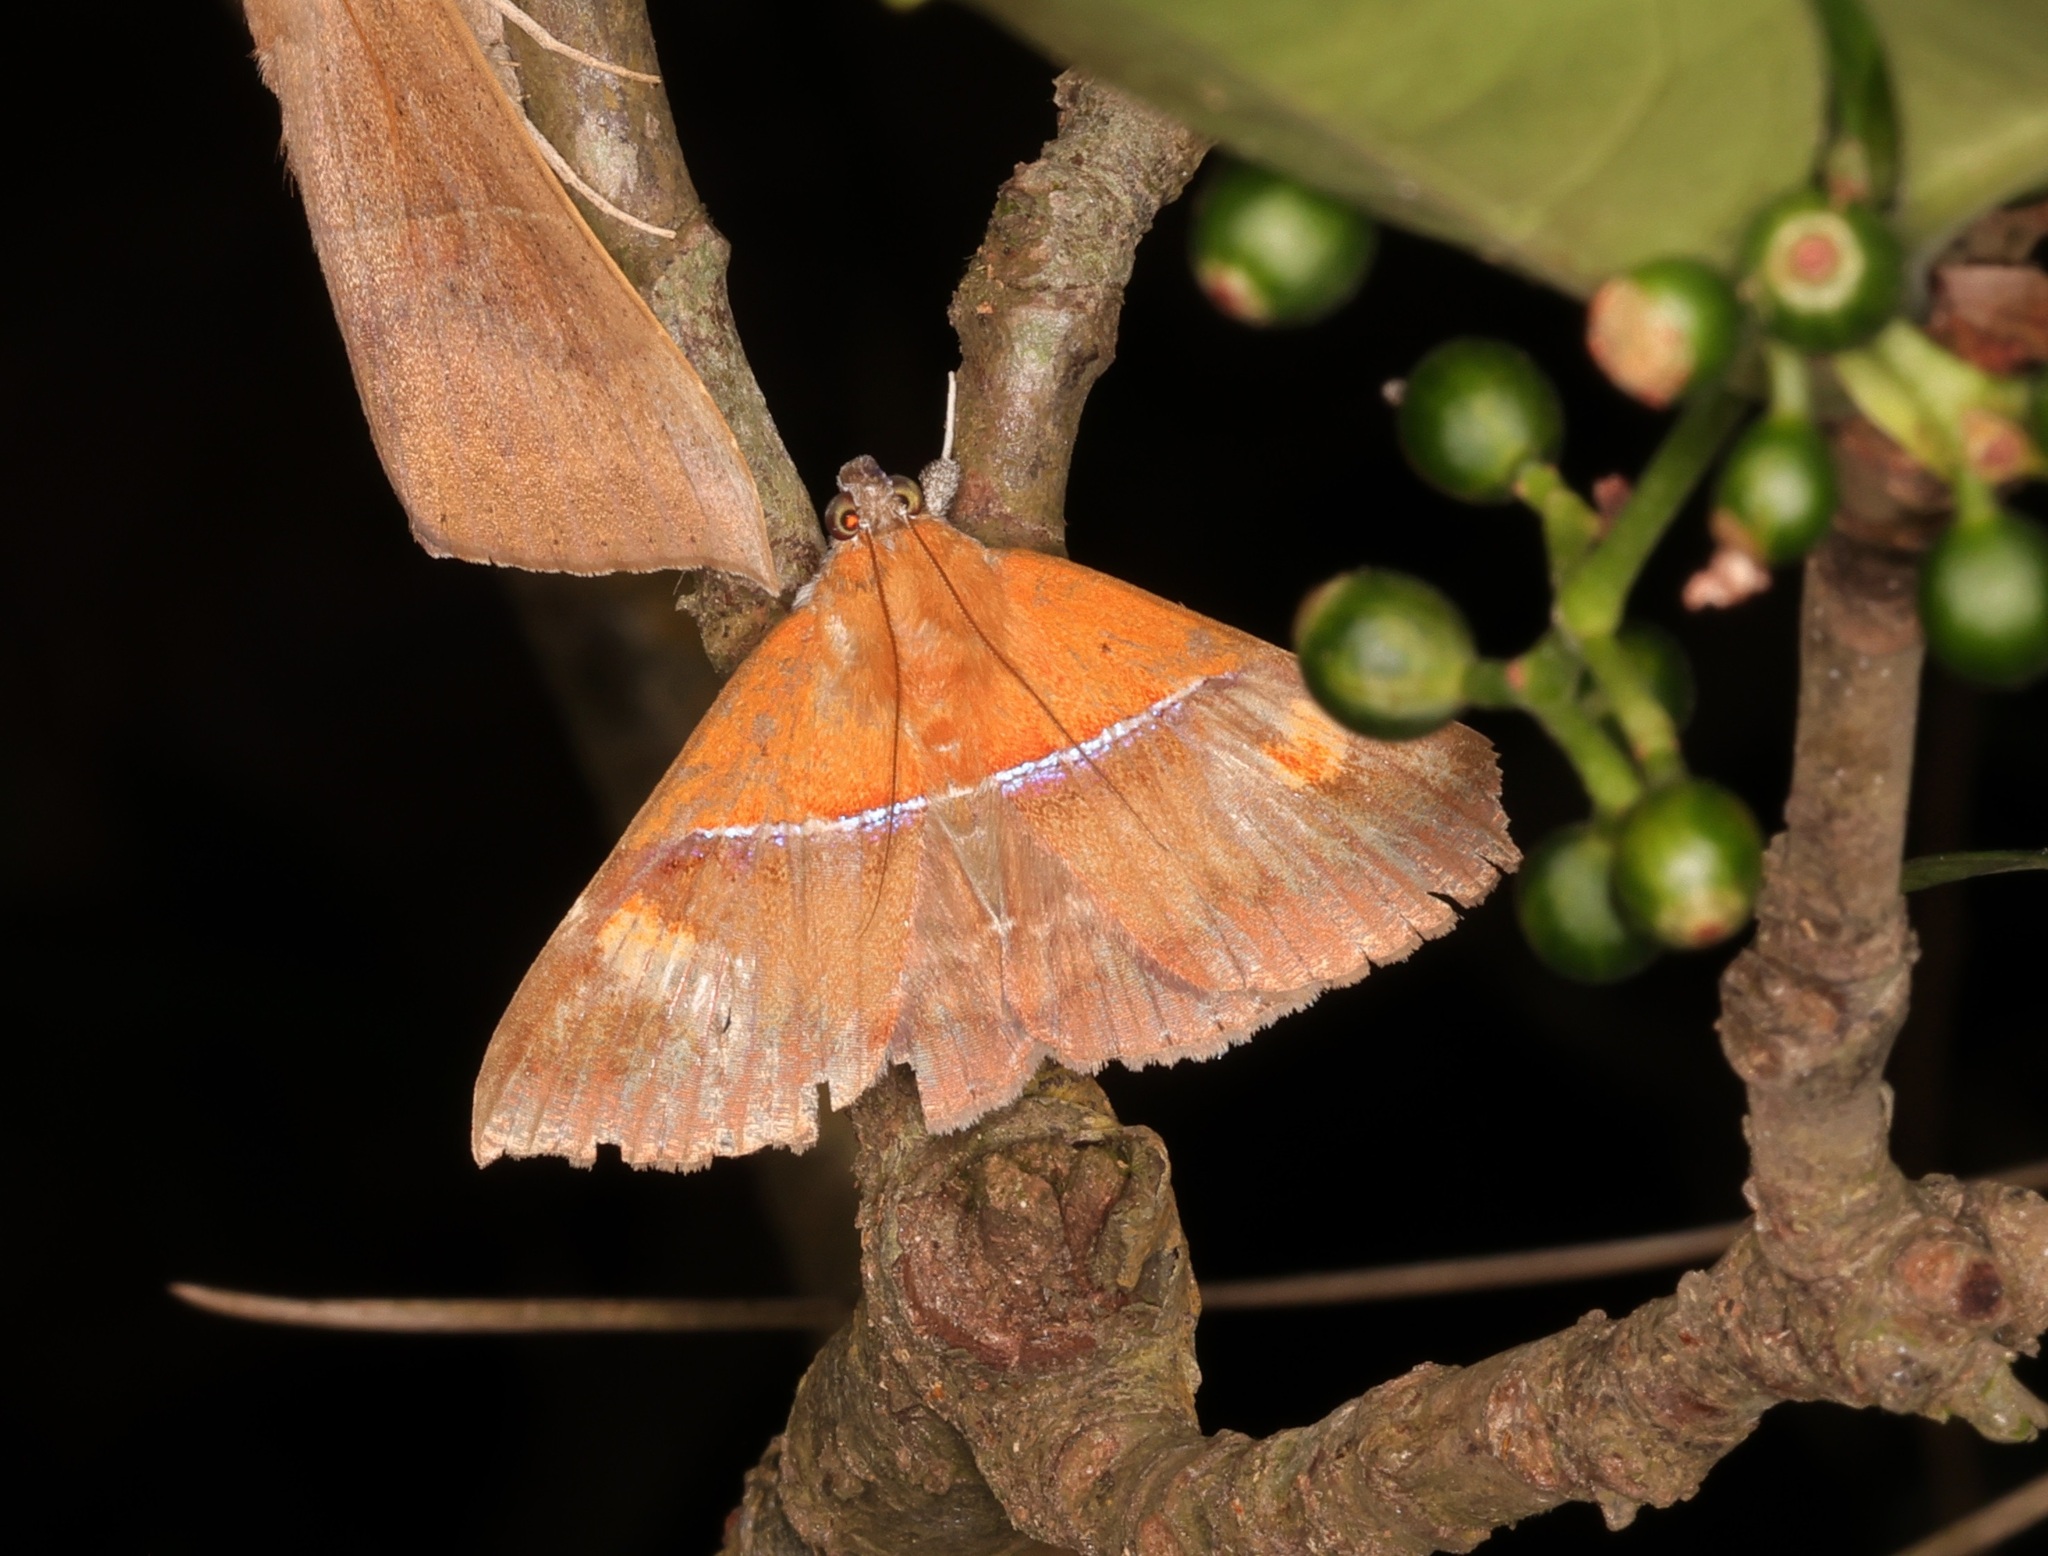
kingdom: Animalia
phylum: Arthropoda
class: Insecta
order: Lepidoptera
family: Erebidae
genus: Sympis
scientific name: Sympis rufibasis
